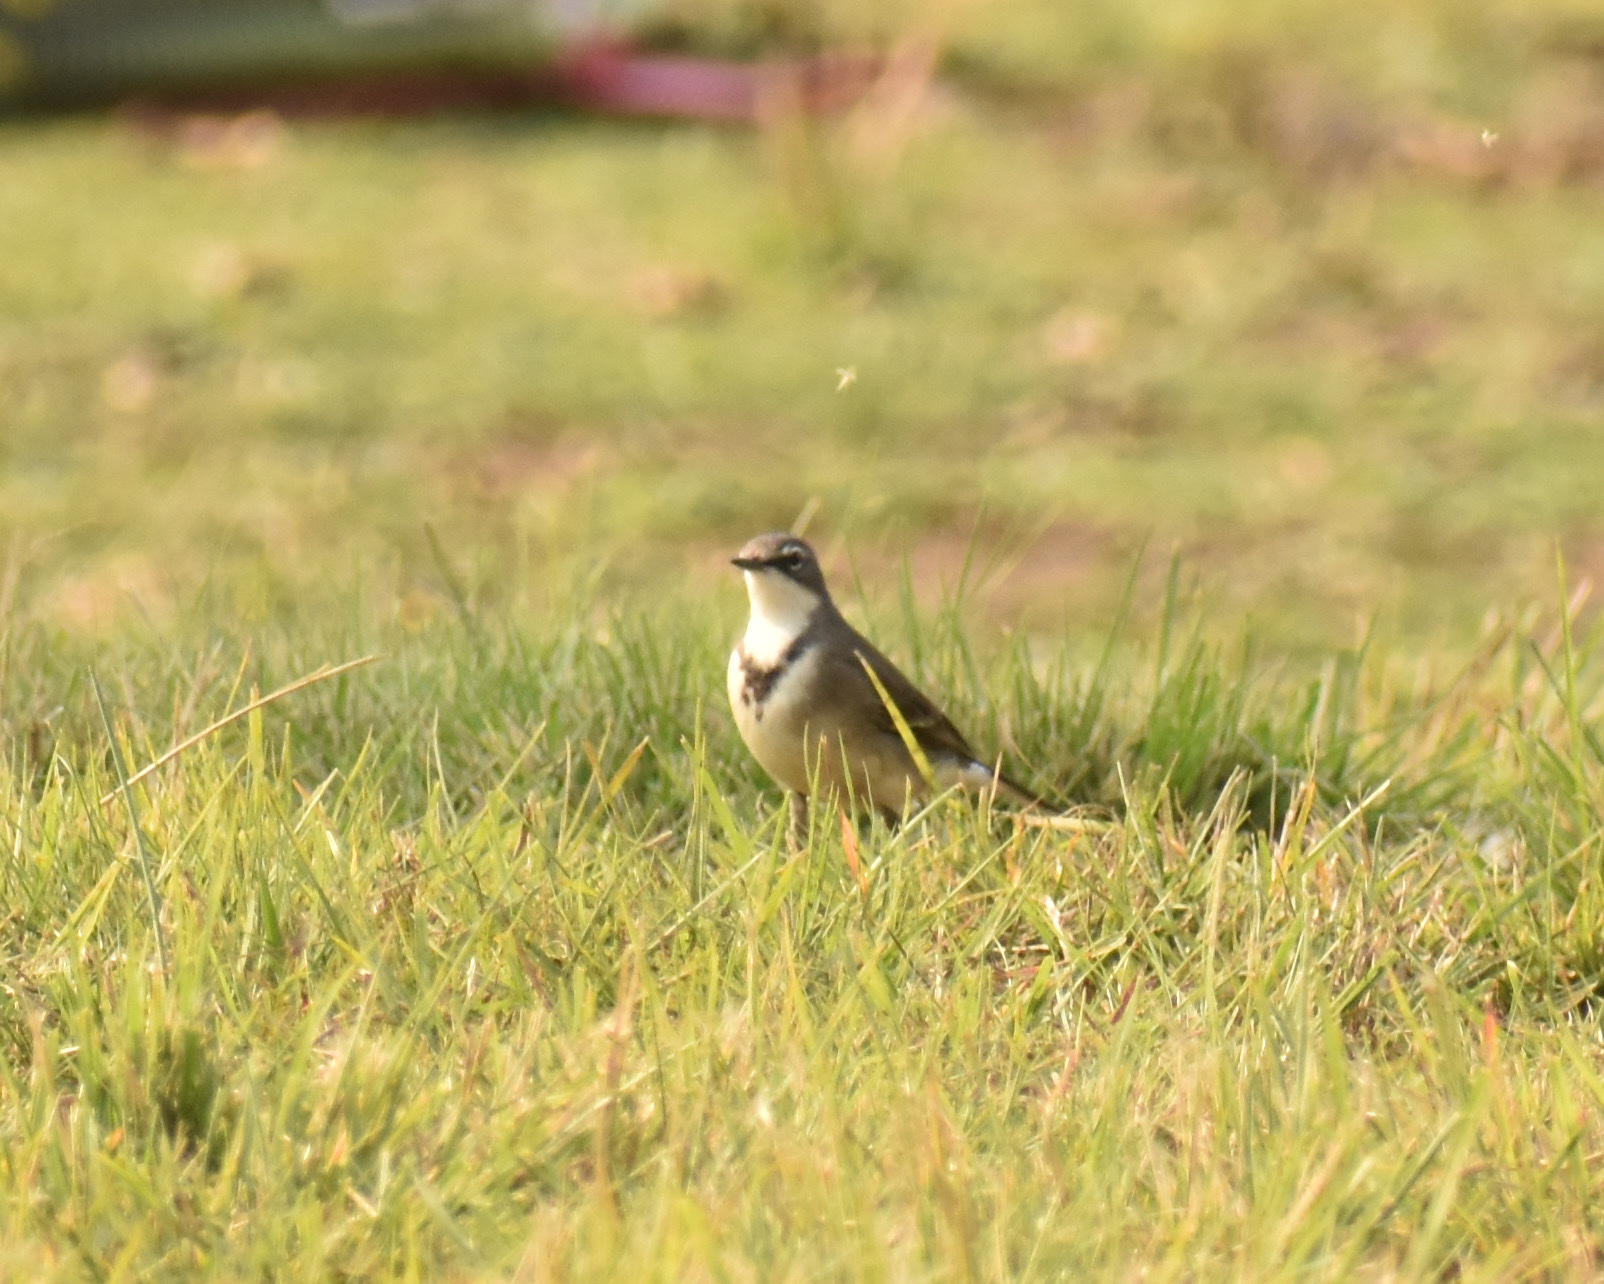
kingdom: Animalia
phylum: Chordata
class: Aves
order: Passeriformes
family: Motacillidae
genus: Motacilla
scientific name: Motacilla capensis
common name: Cape wagtail
